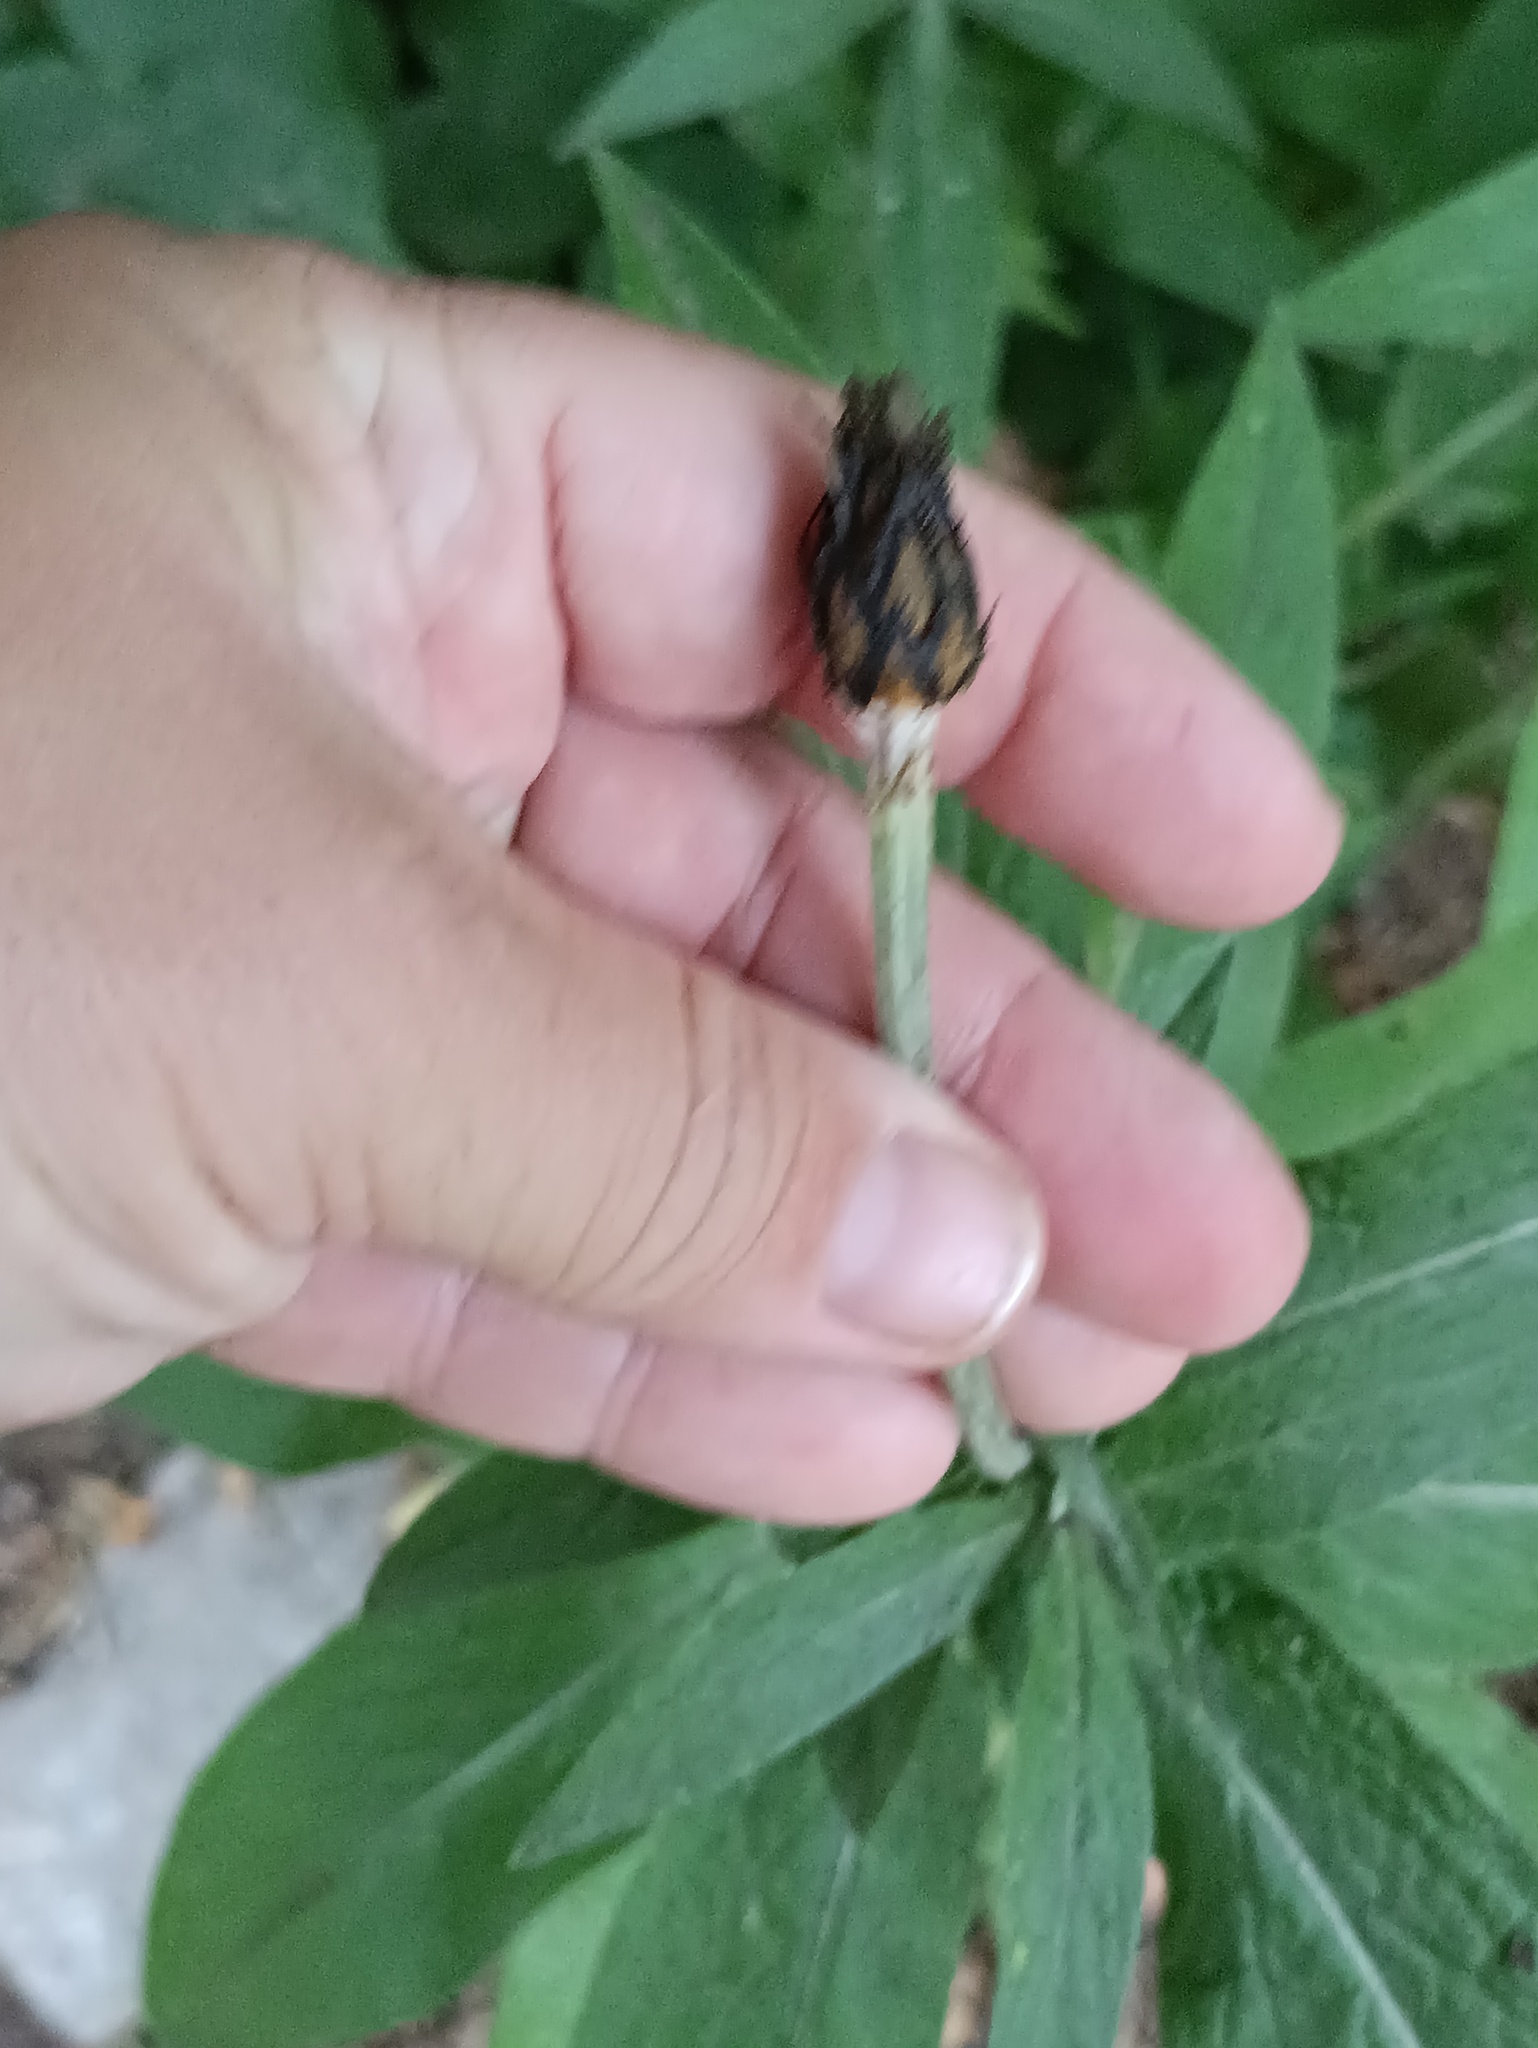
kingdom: Plantae
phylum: Tracheophyta
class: Magnoliopsida
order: Asterales
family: Asteraceae
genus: Centaurea
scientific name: Centaurea montana
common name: Perennial cornflower
